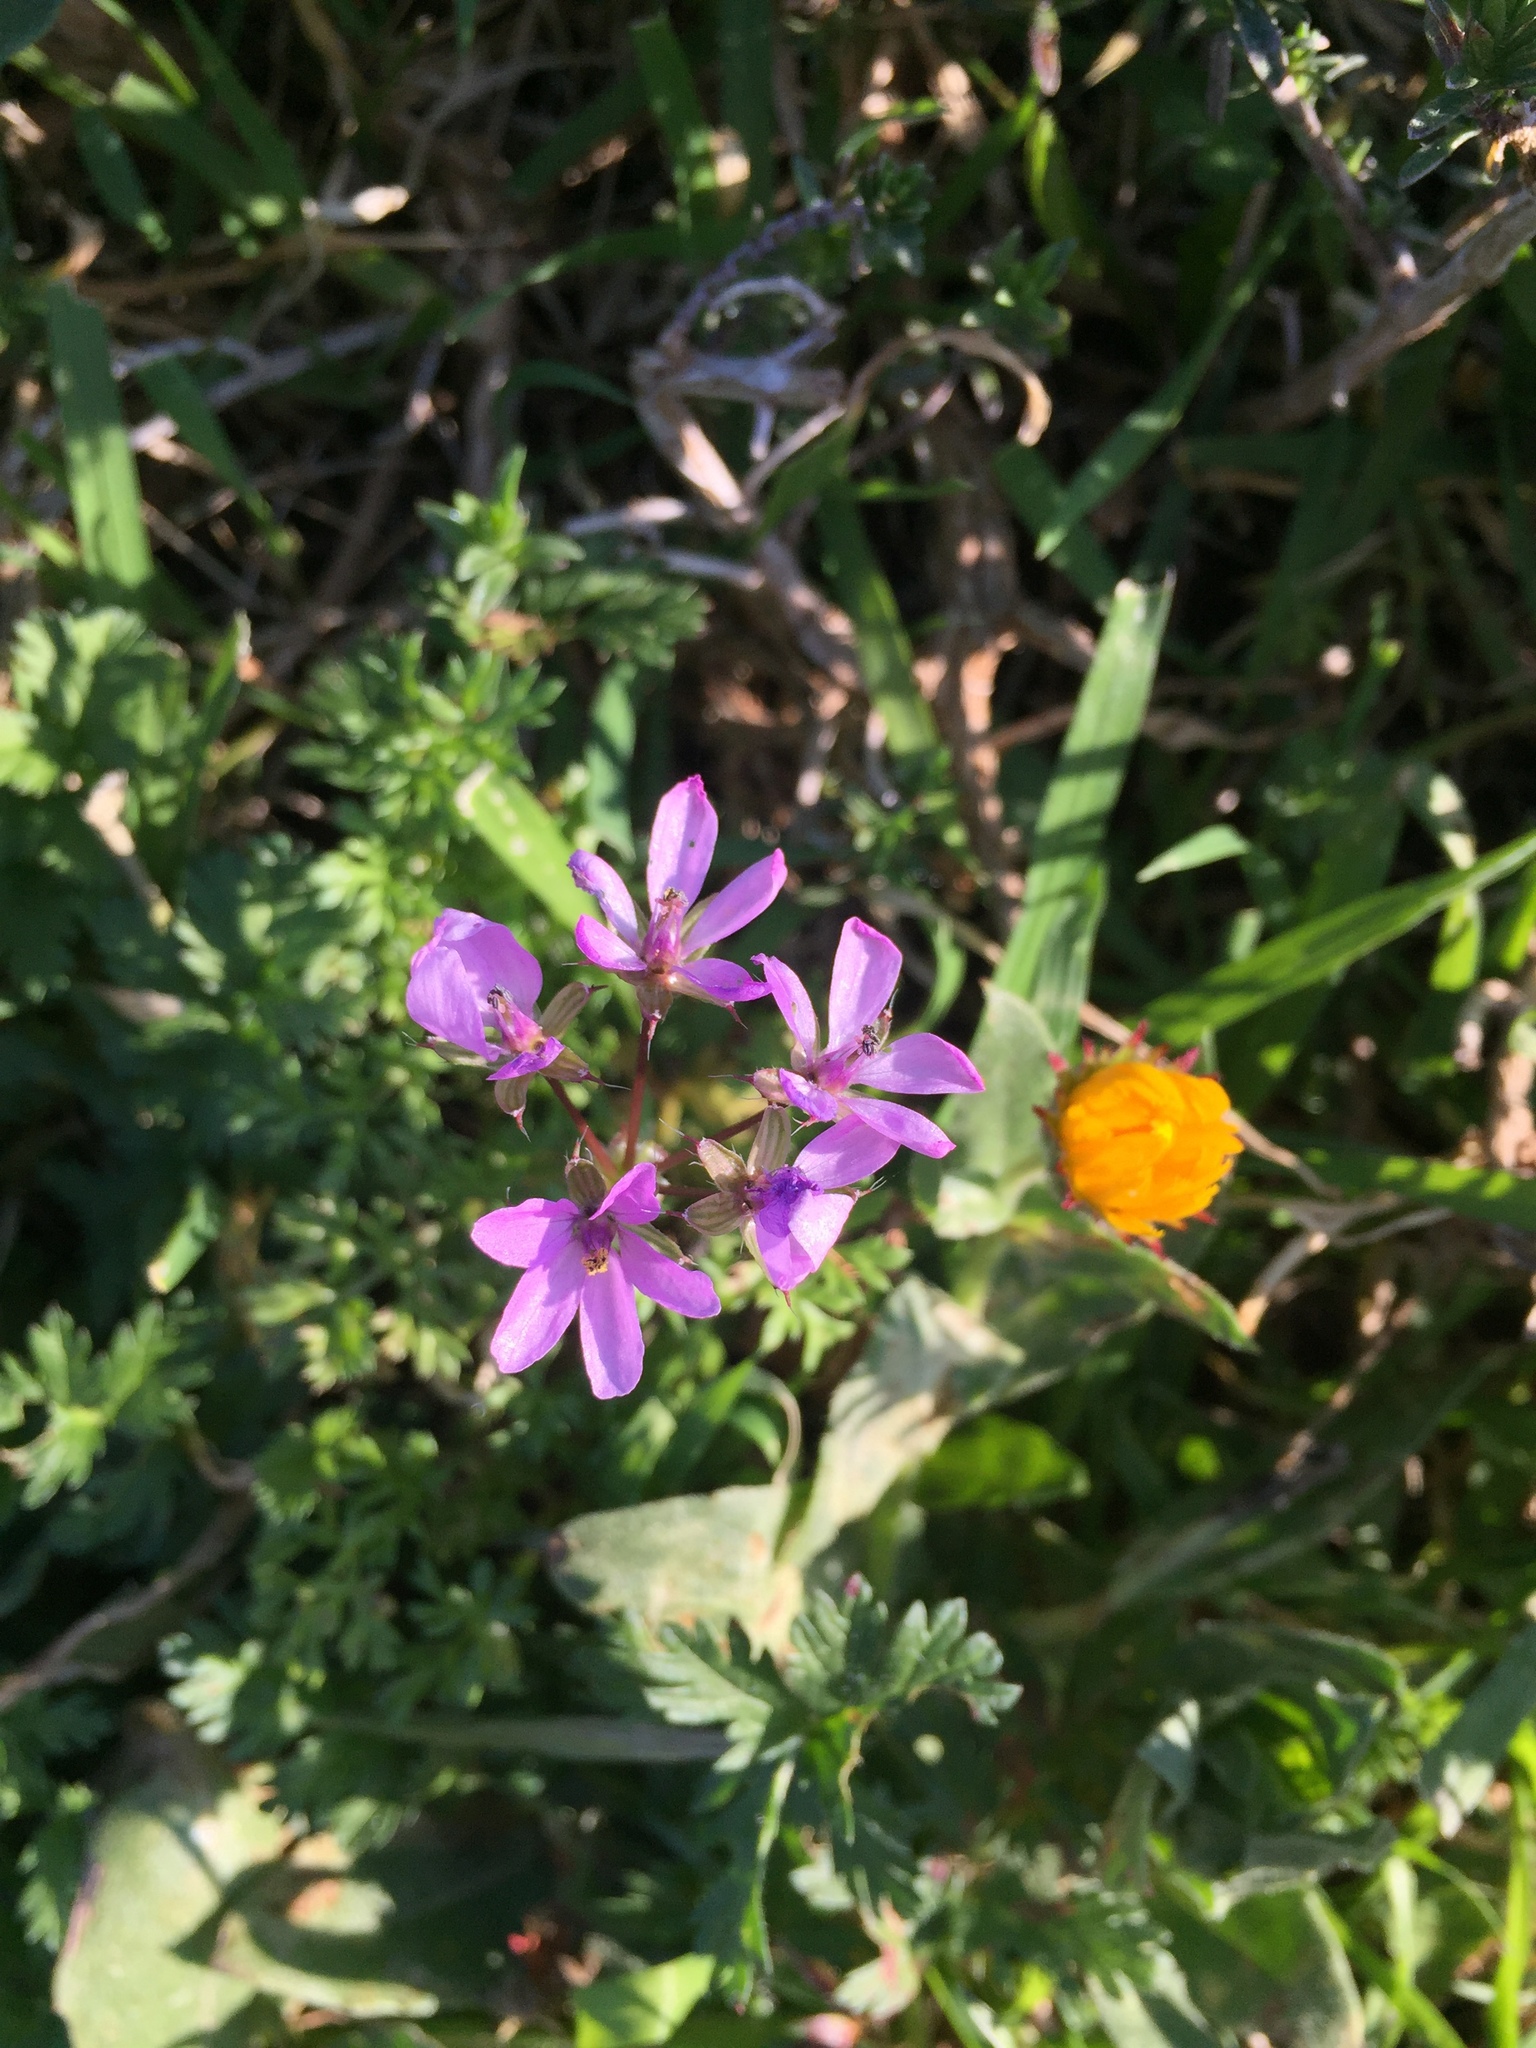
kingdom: Plantae
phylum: Tracheophyta
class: Magnoliopsida
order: Geraniales
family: Geraniaceae
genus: Erodium
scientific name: Erodium moschatum
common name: Musk stork's-bill
